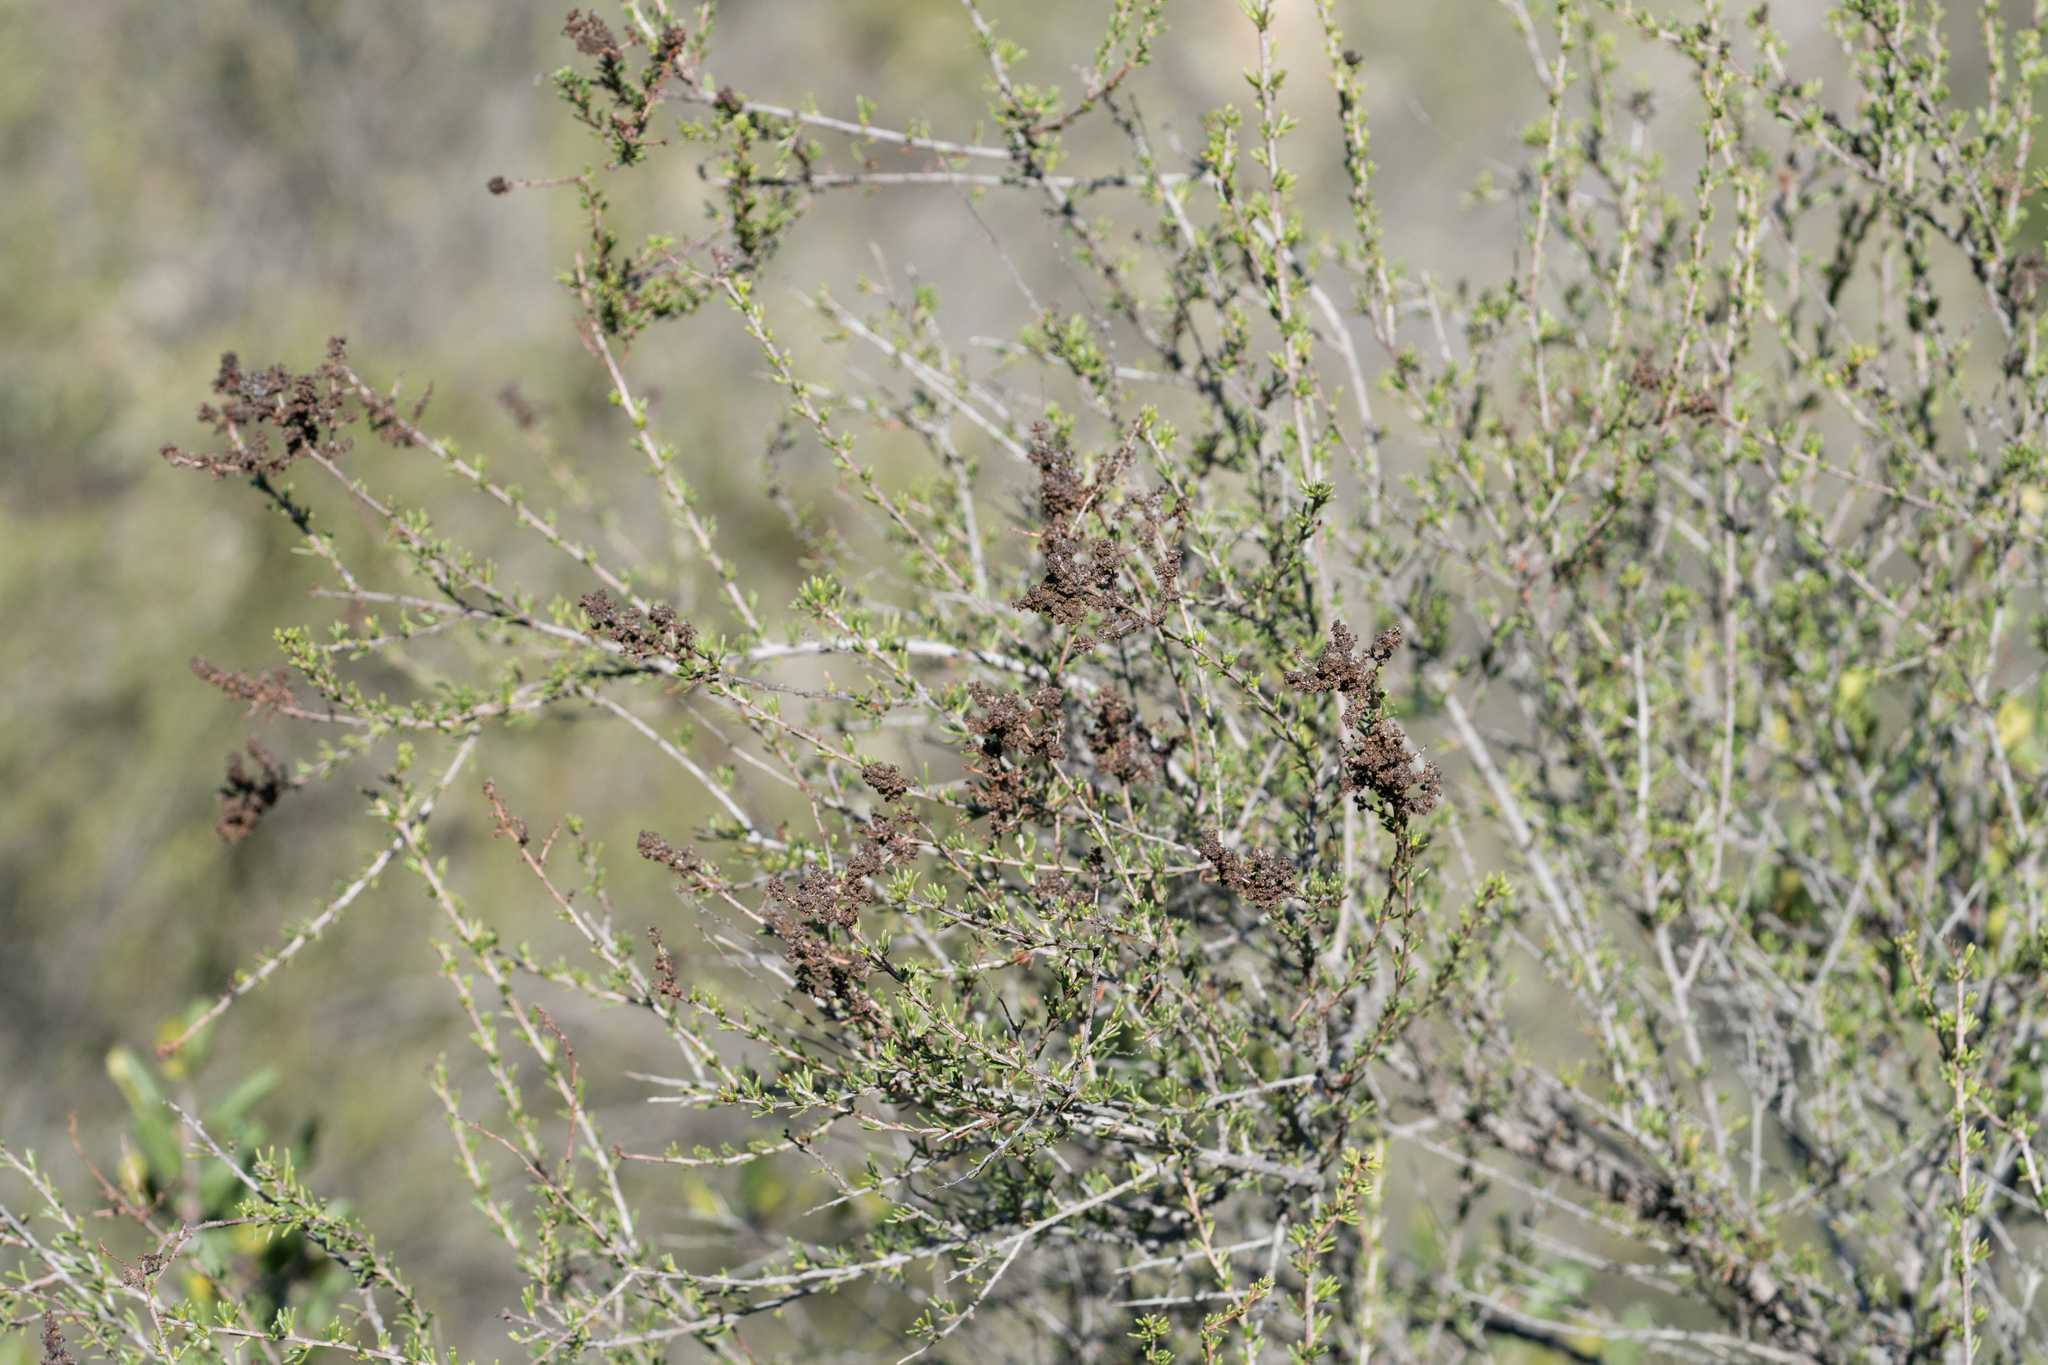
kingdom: Plantae
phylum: Tracheophyta
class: Magnoliopsida
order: Rosales
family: Rosaceae
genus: Adenostoma
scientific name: Adenostoma fasciculatum
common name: Chamise
